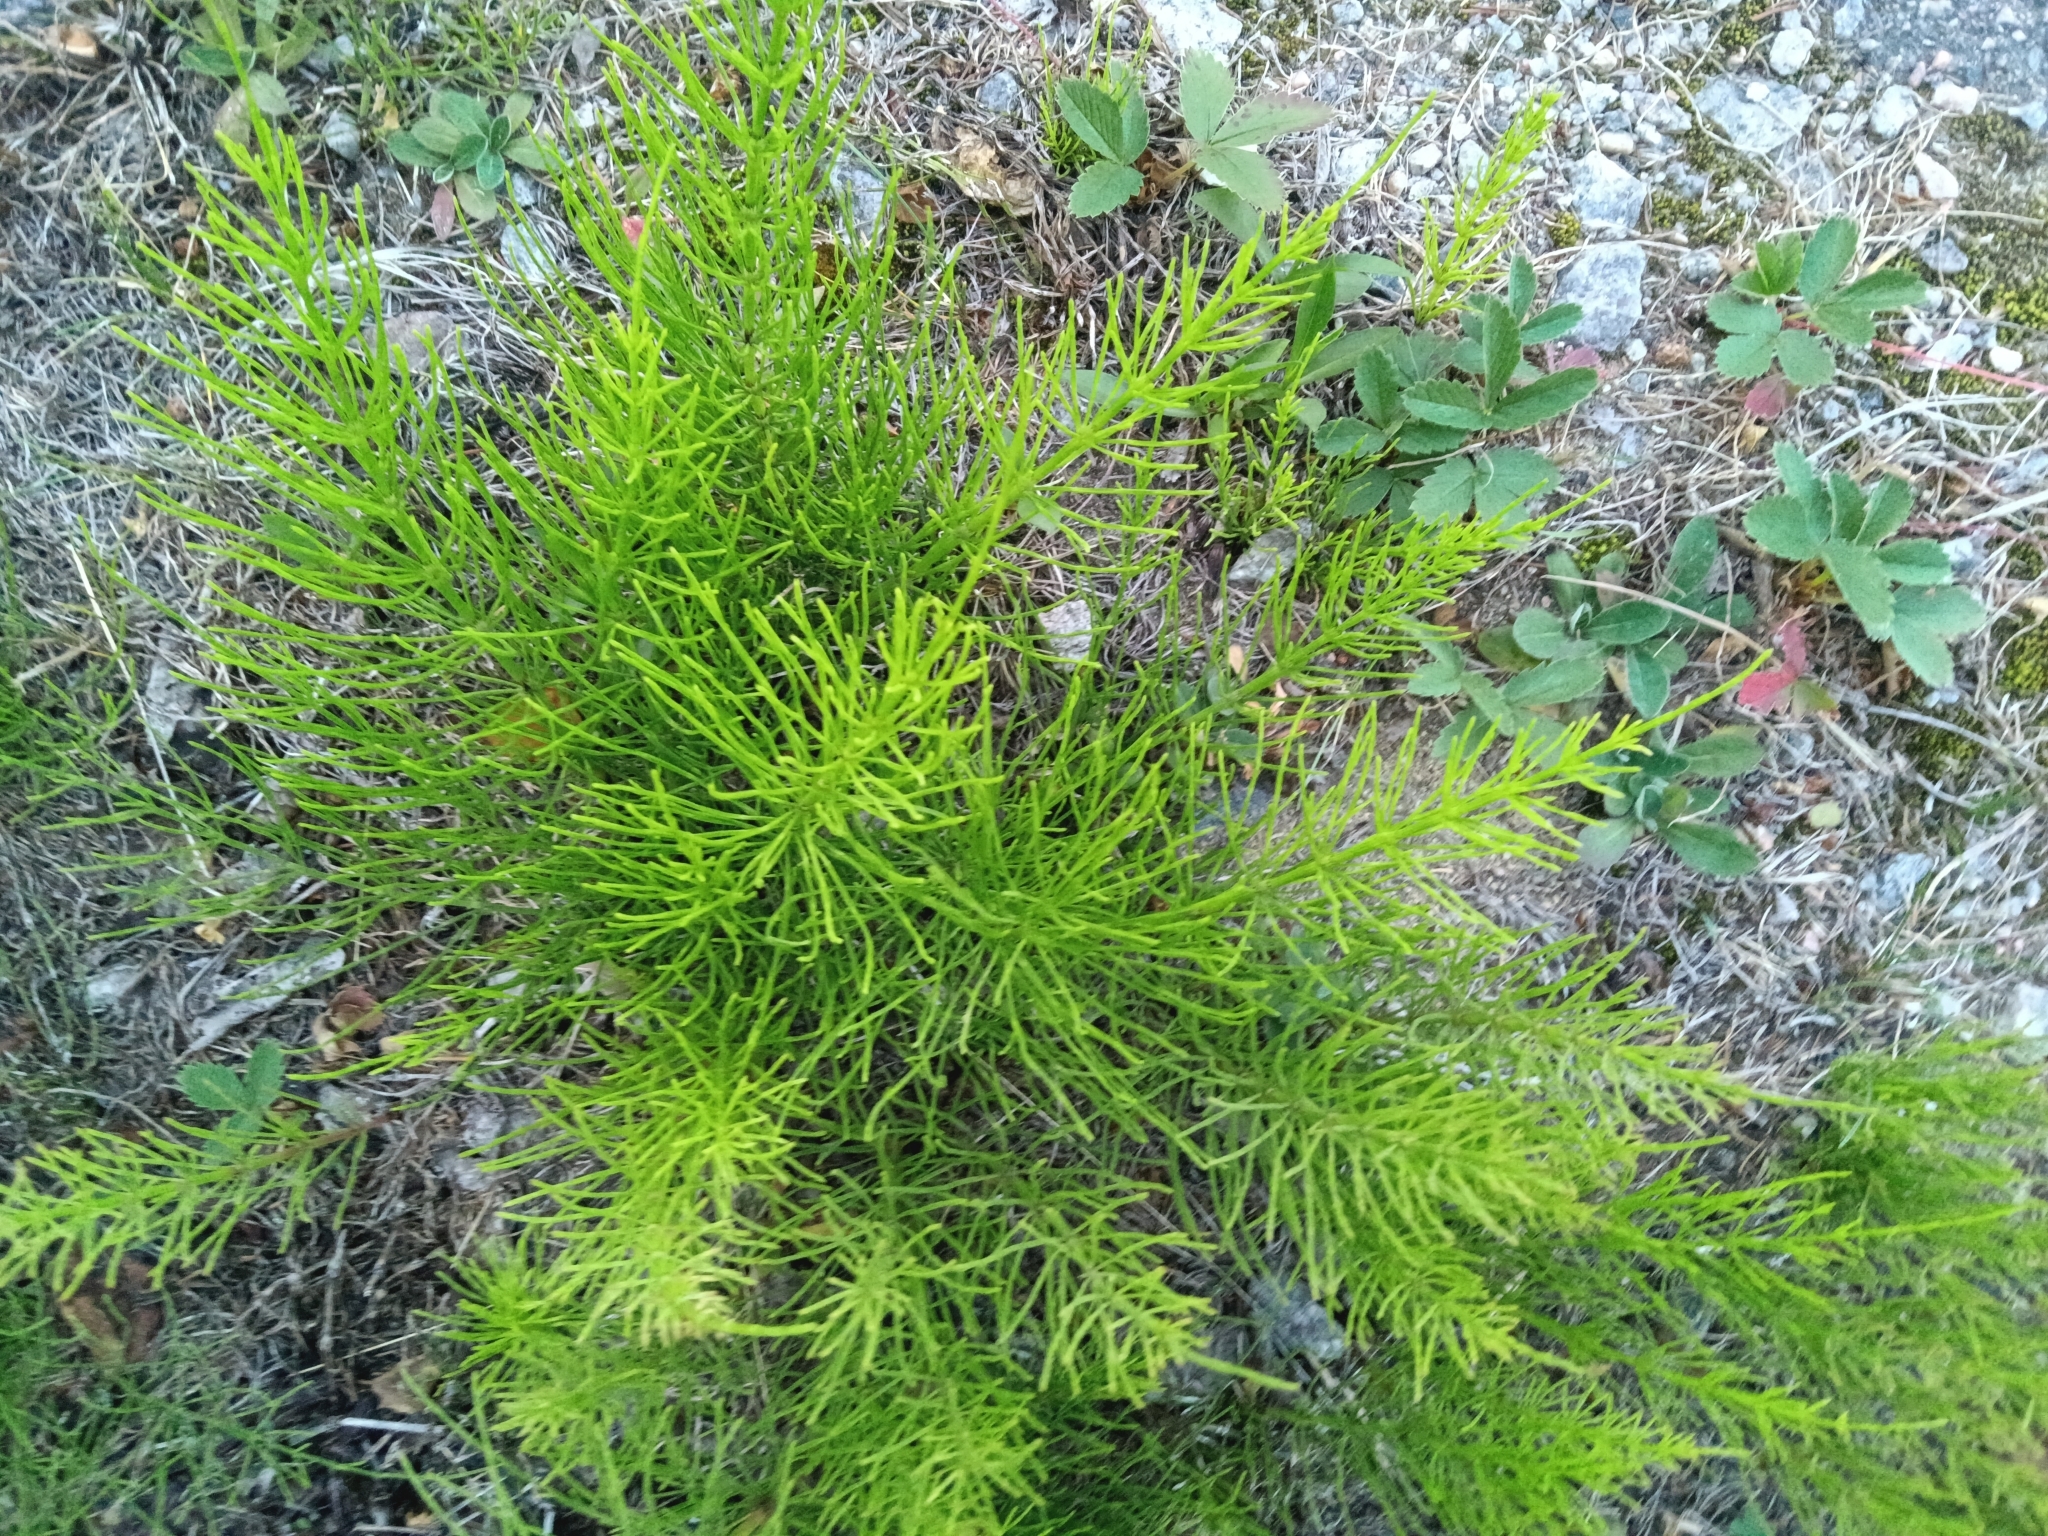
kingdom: Plantae
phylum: Tracheophyta
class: Polypodiopsida
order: Equisetales
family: Equisetaceae
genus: Equisetum
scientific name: Equisetum arvense
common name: Field horsetail
